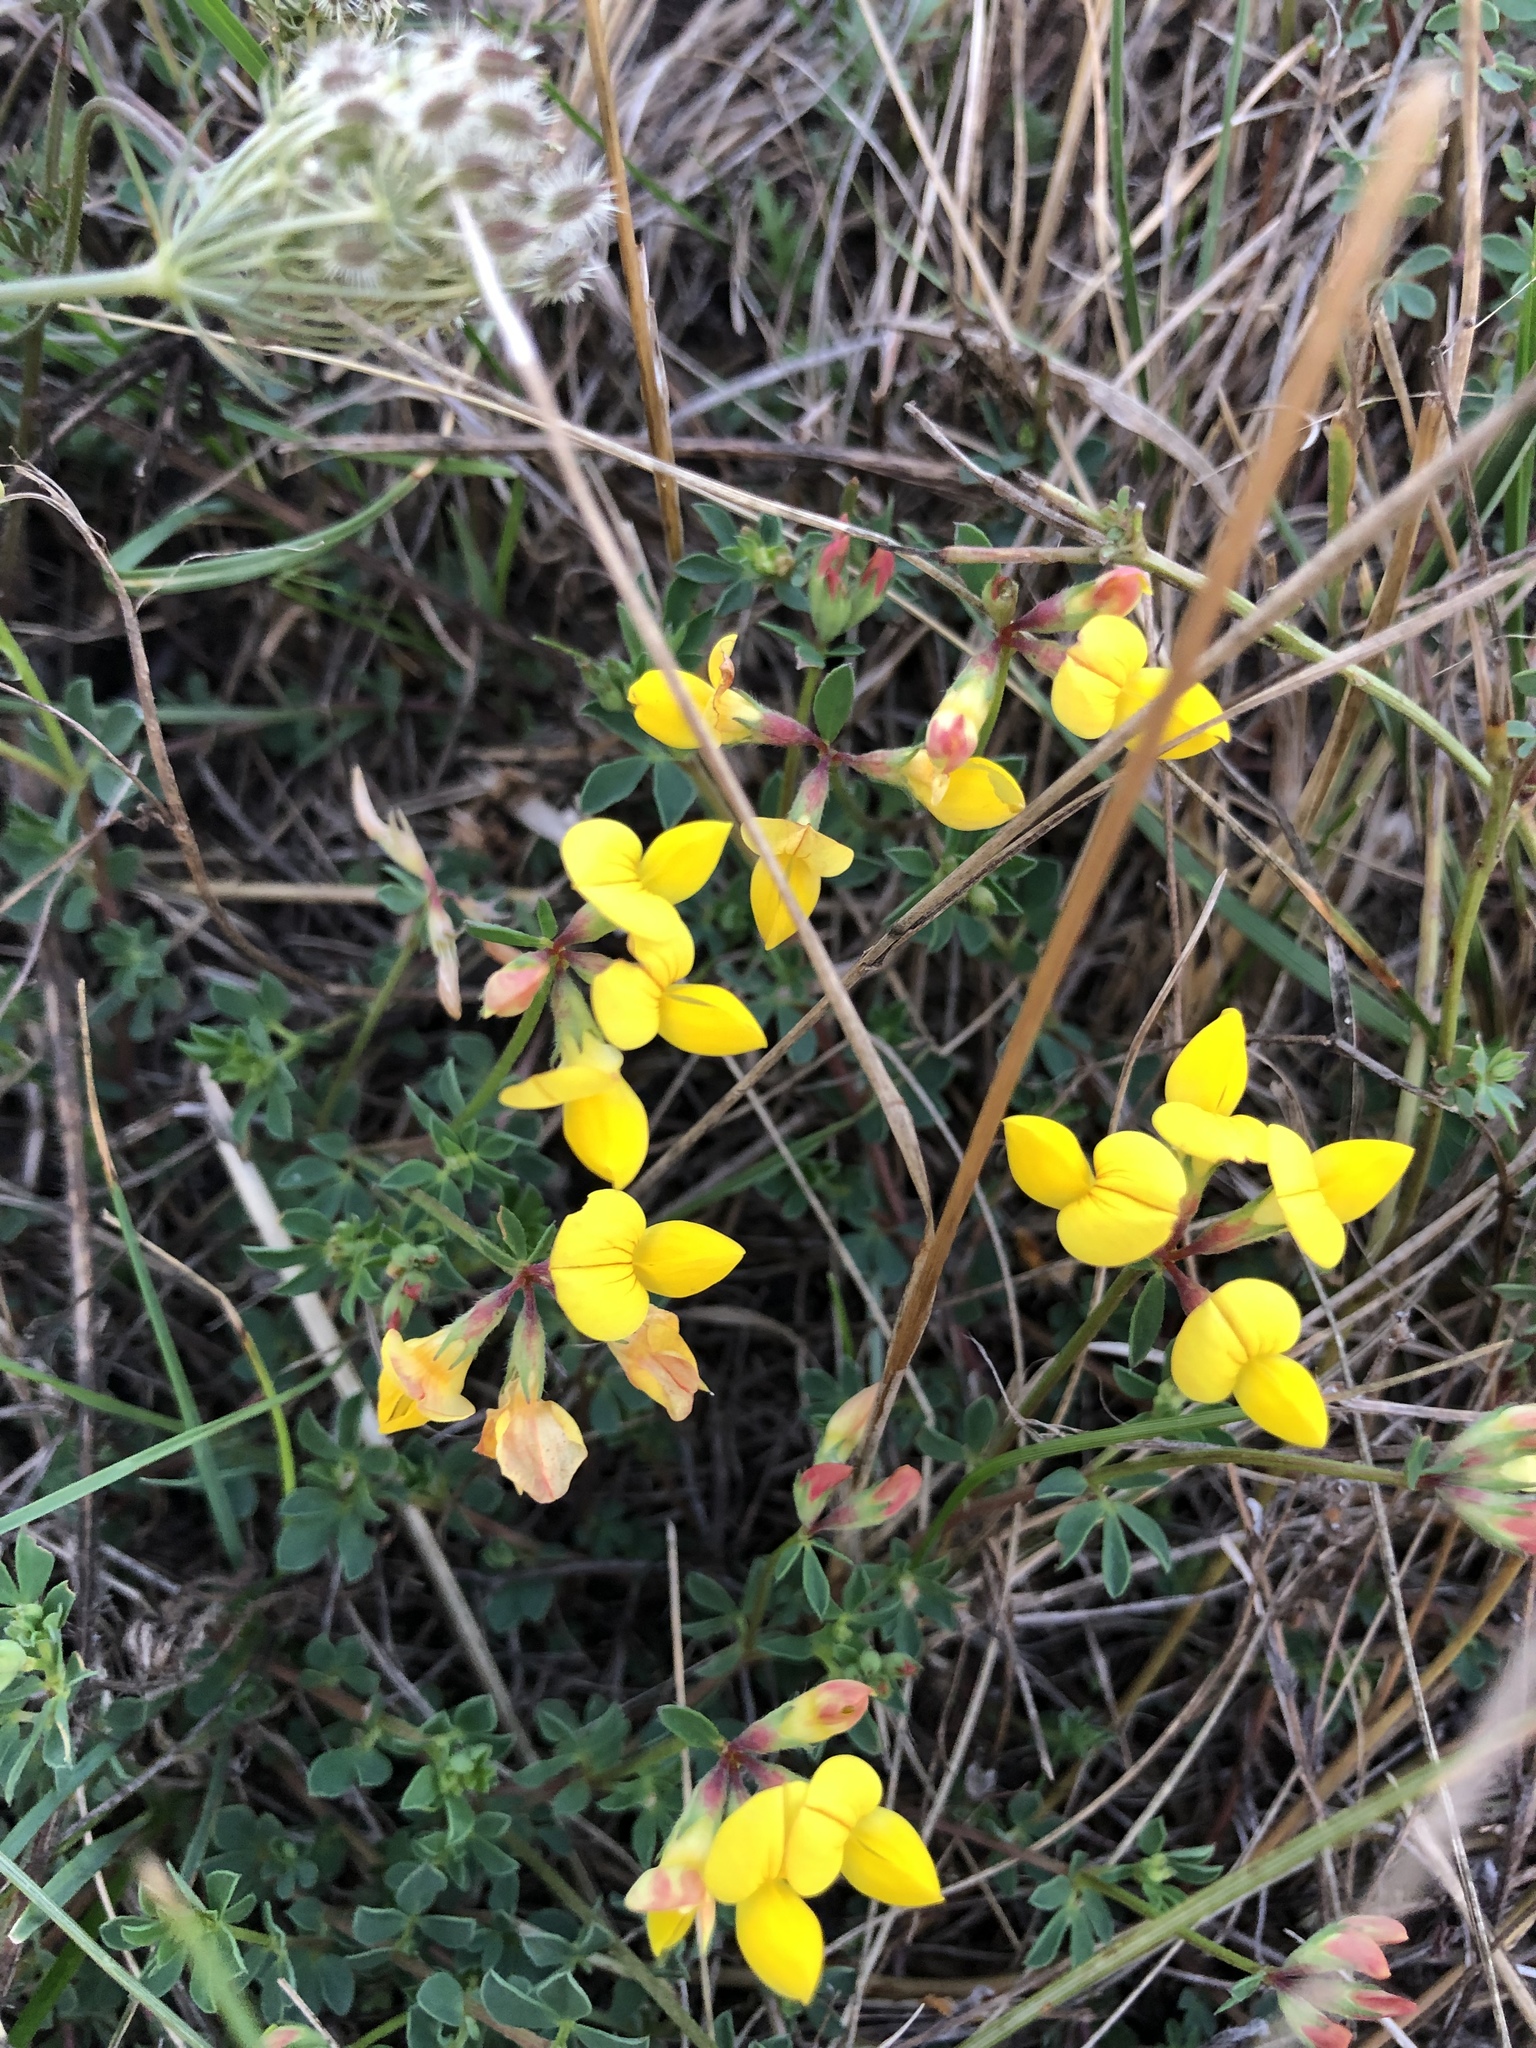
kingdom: Plantae
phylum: Tracheophyta
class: Magnoliopsida
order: Fabales
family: Fabaceae
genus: Lotus
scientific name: Lotus corniculatus
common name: Common bird's-foot-trefoil
